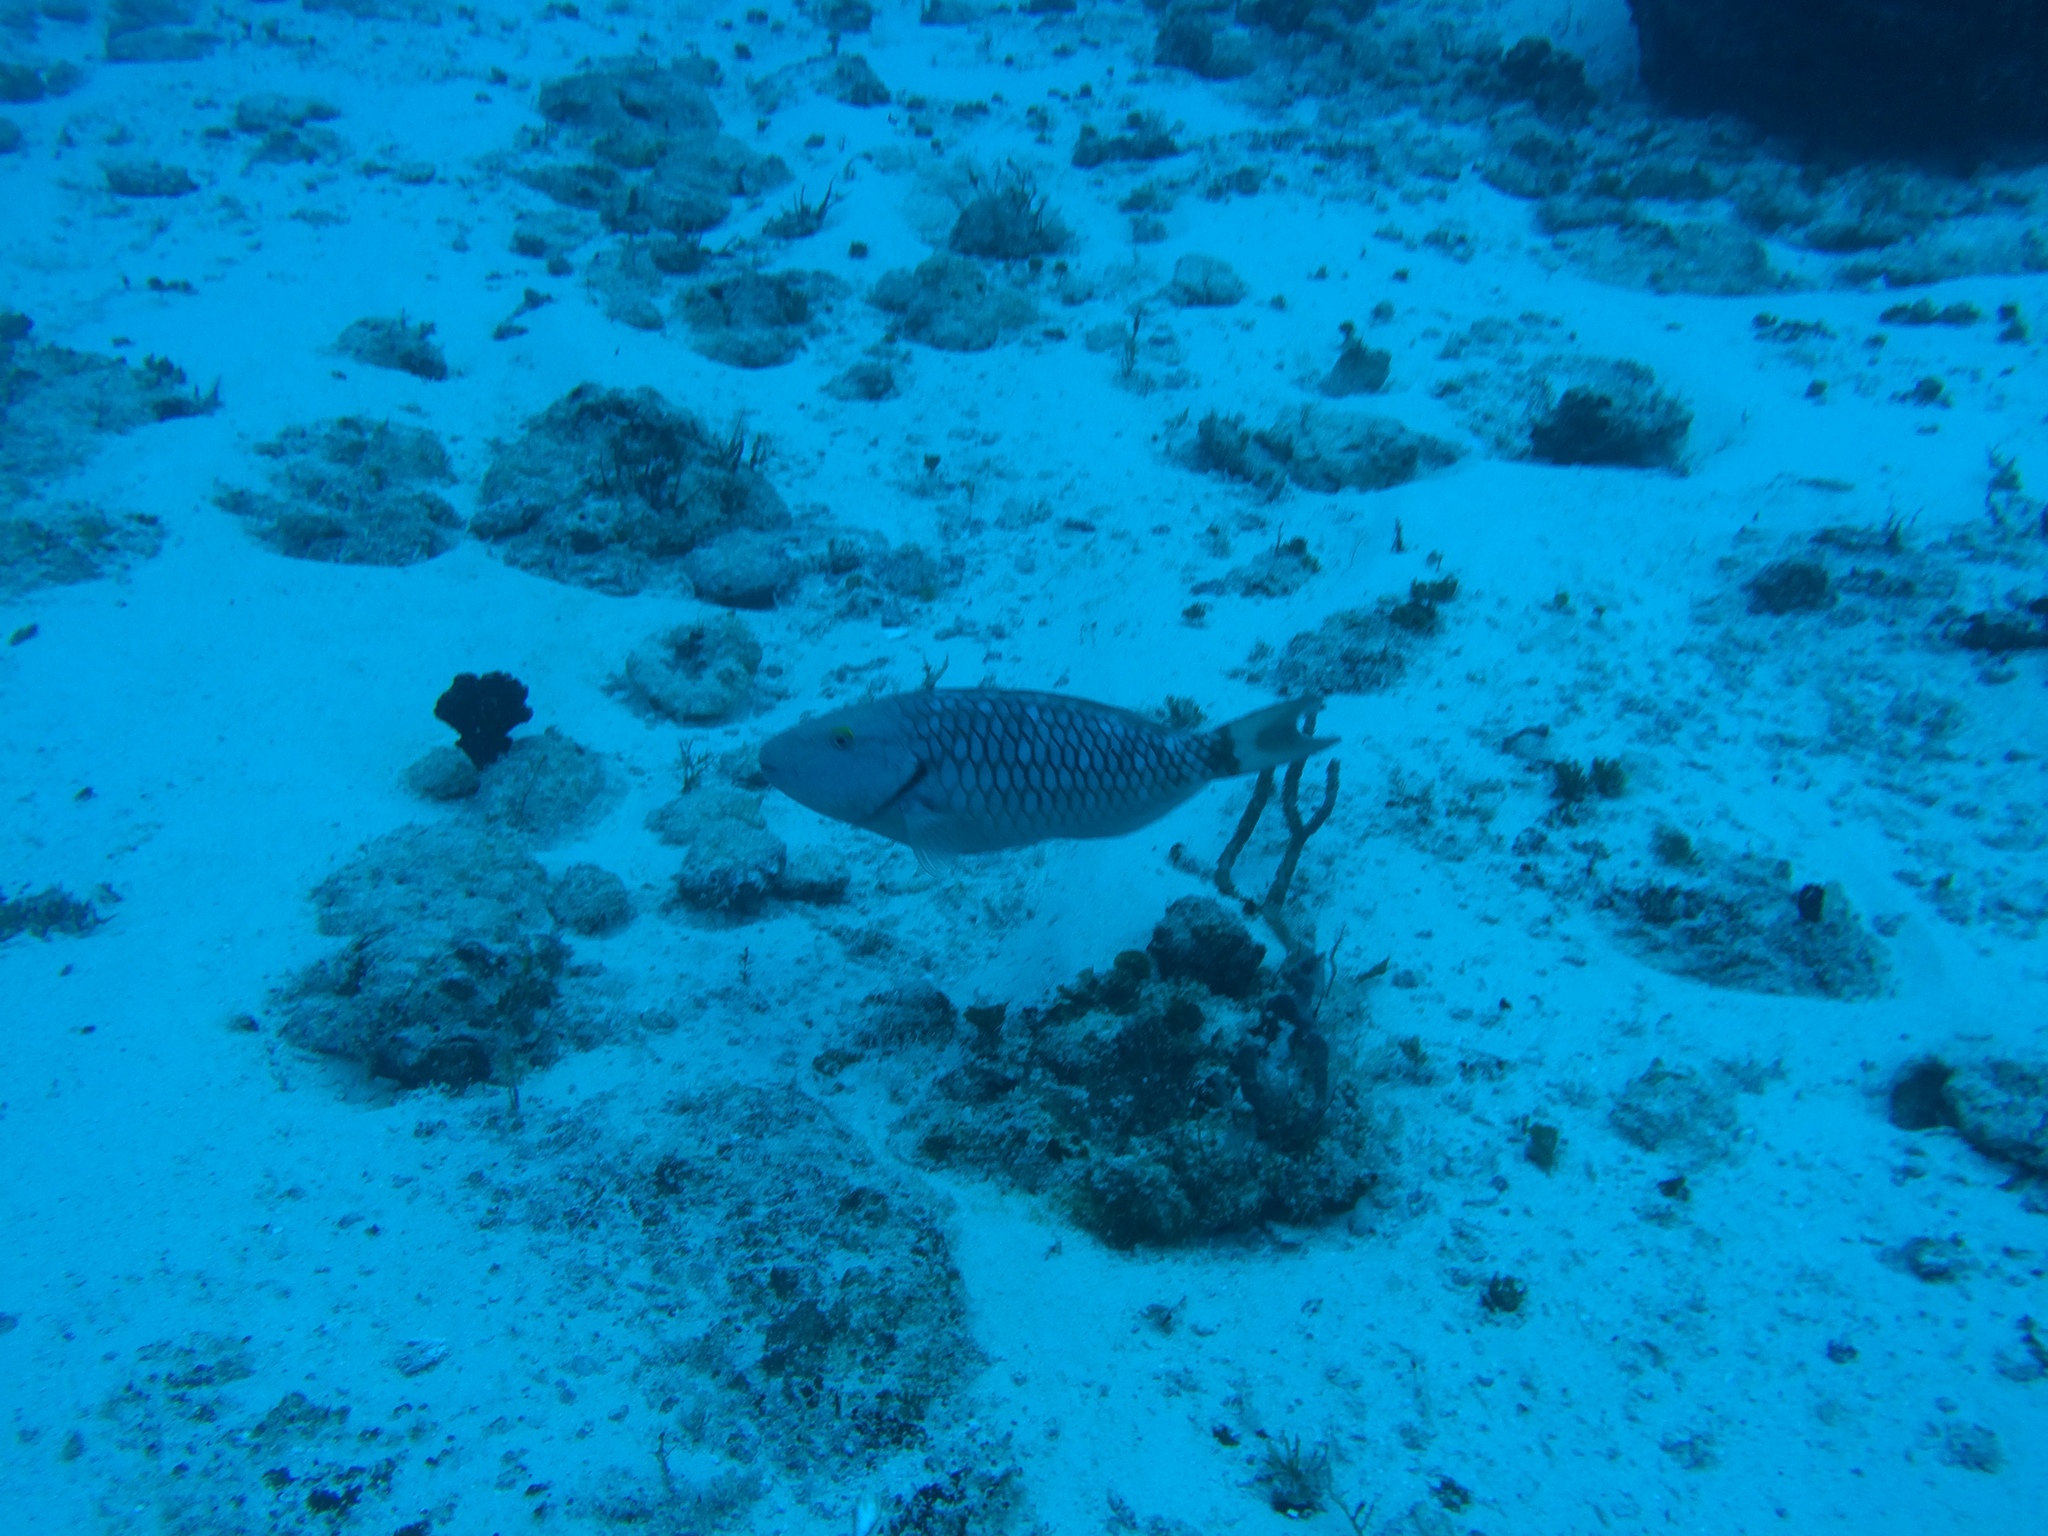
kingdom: Animalia
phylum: Chordata
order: Perciformes
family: Scaridae
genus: Sparisoma
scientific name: Sparisoma viride
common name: Stoplight parrotfish
